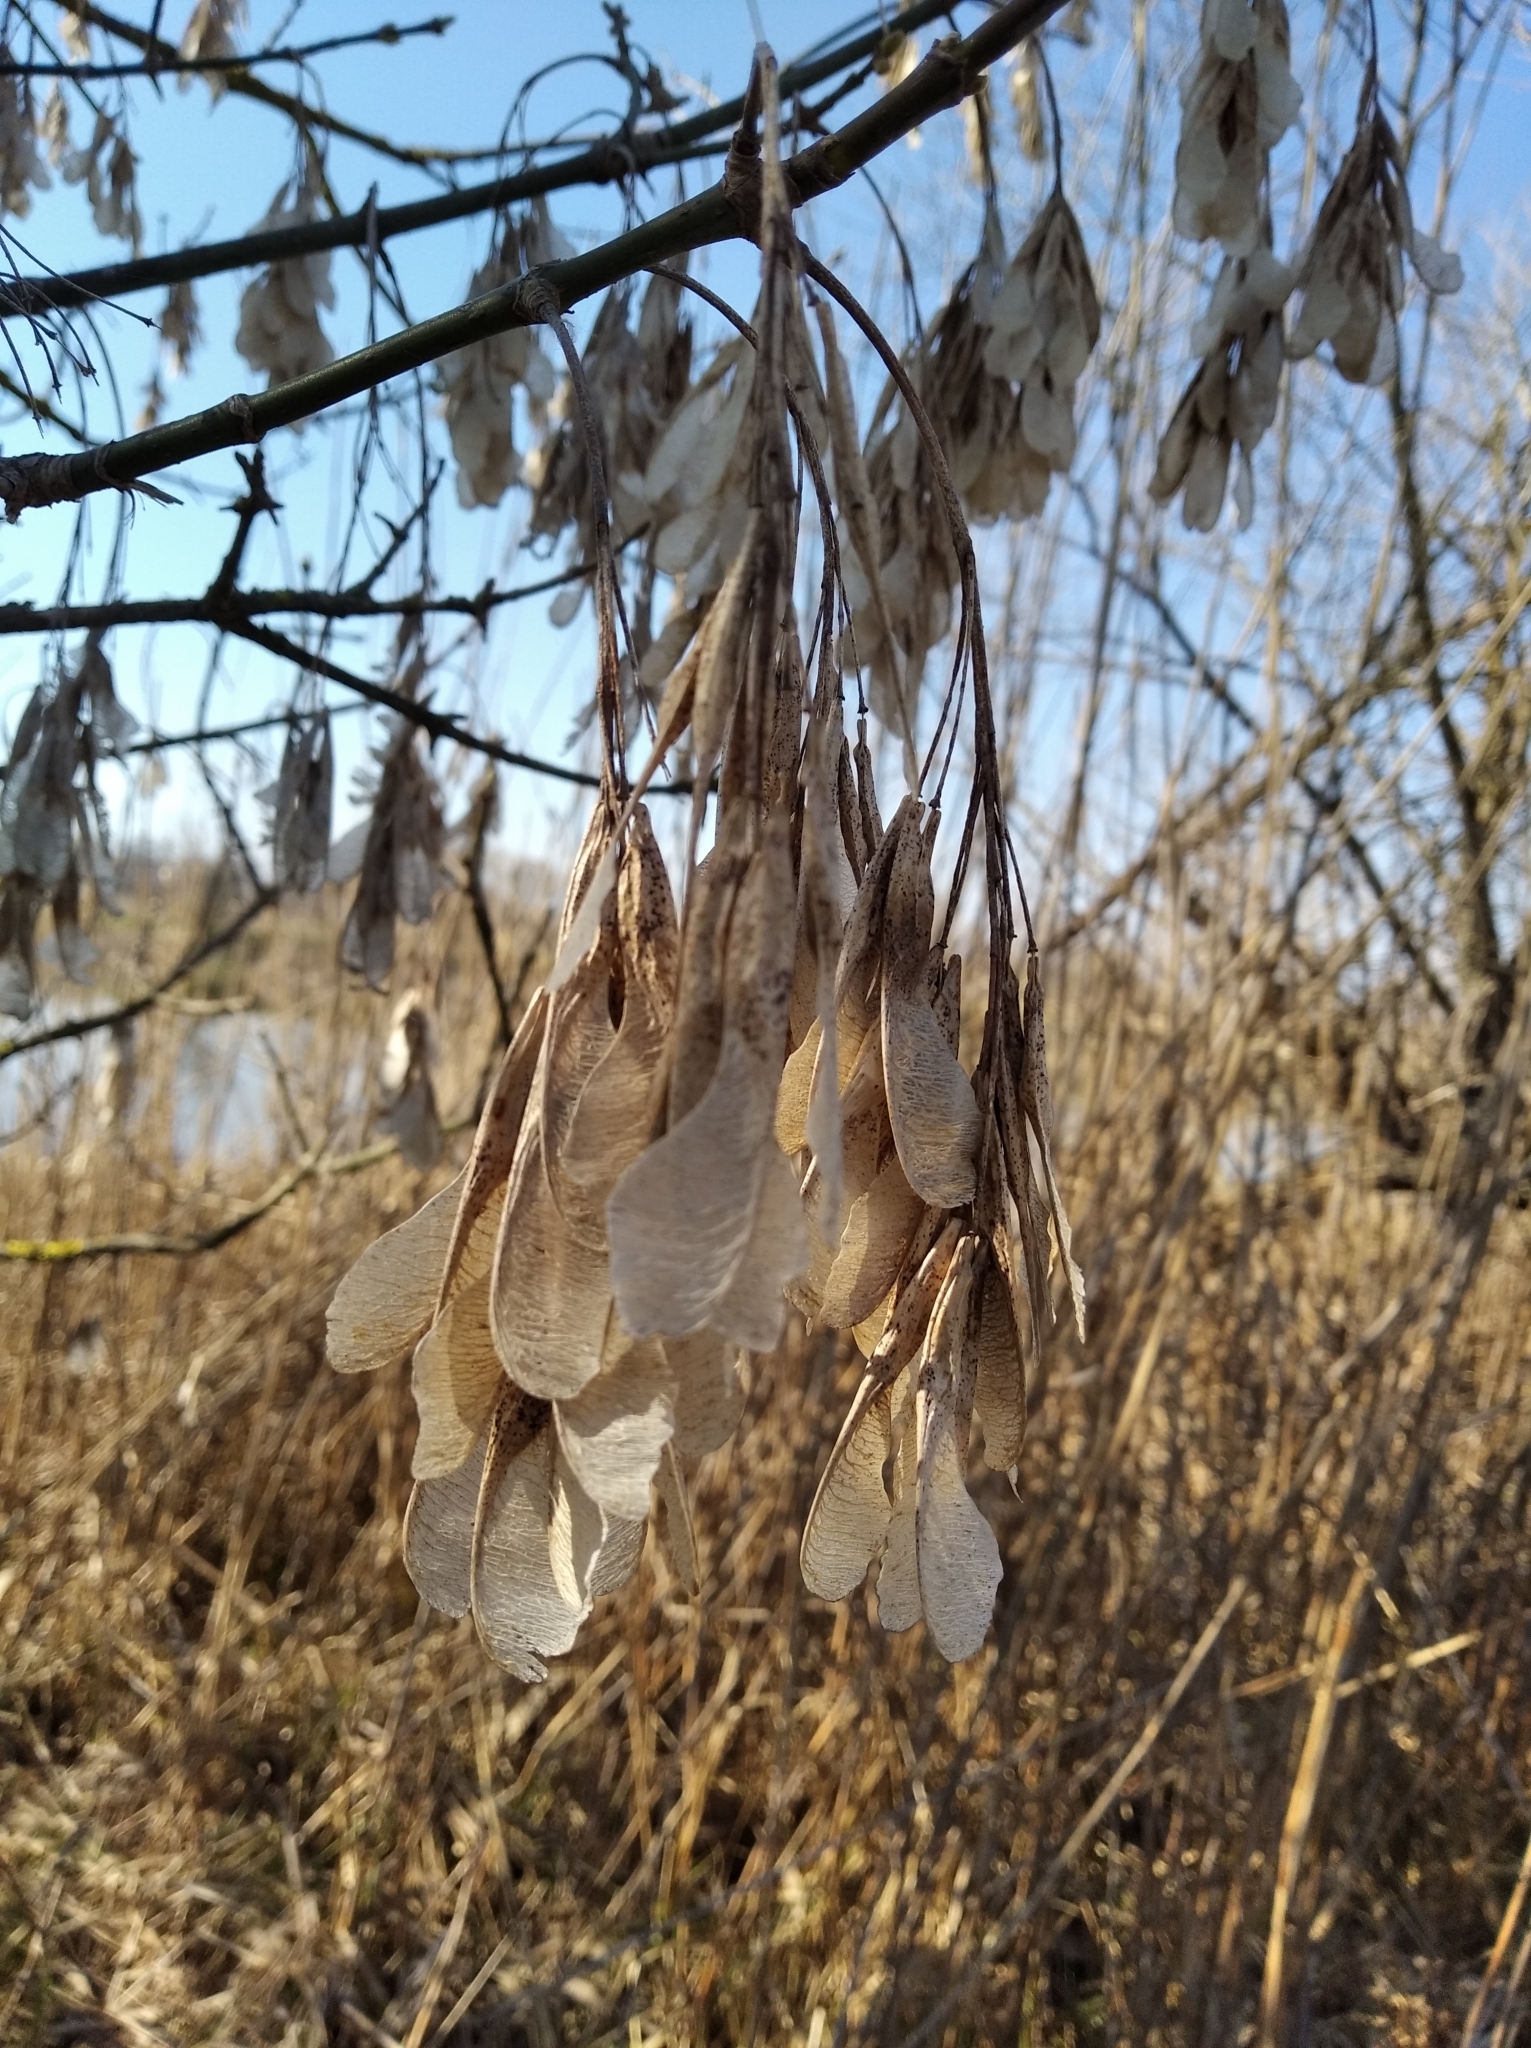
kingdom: Plantae
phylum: Tracheophyta
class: Magnoliopsida
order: Sapindales
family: Sapindaceae
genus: Acer
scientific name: Acer negundo
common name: Ashleaf maple
